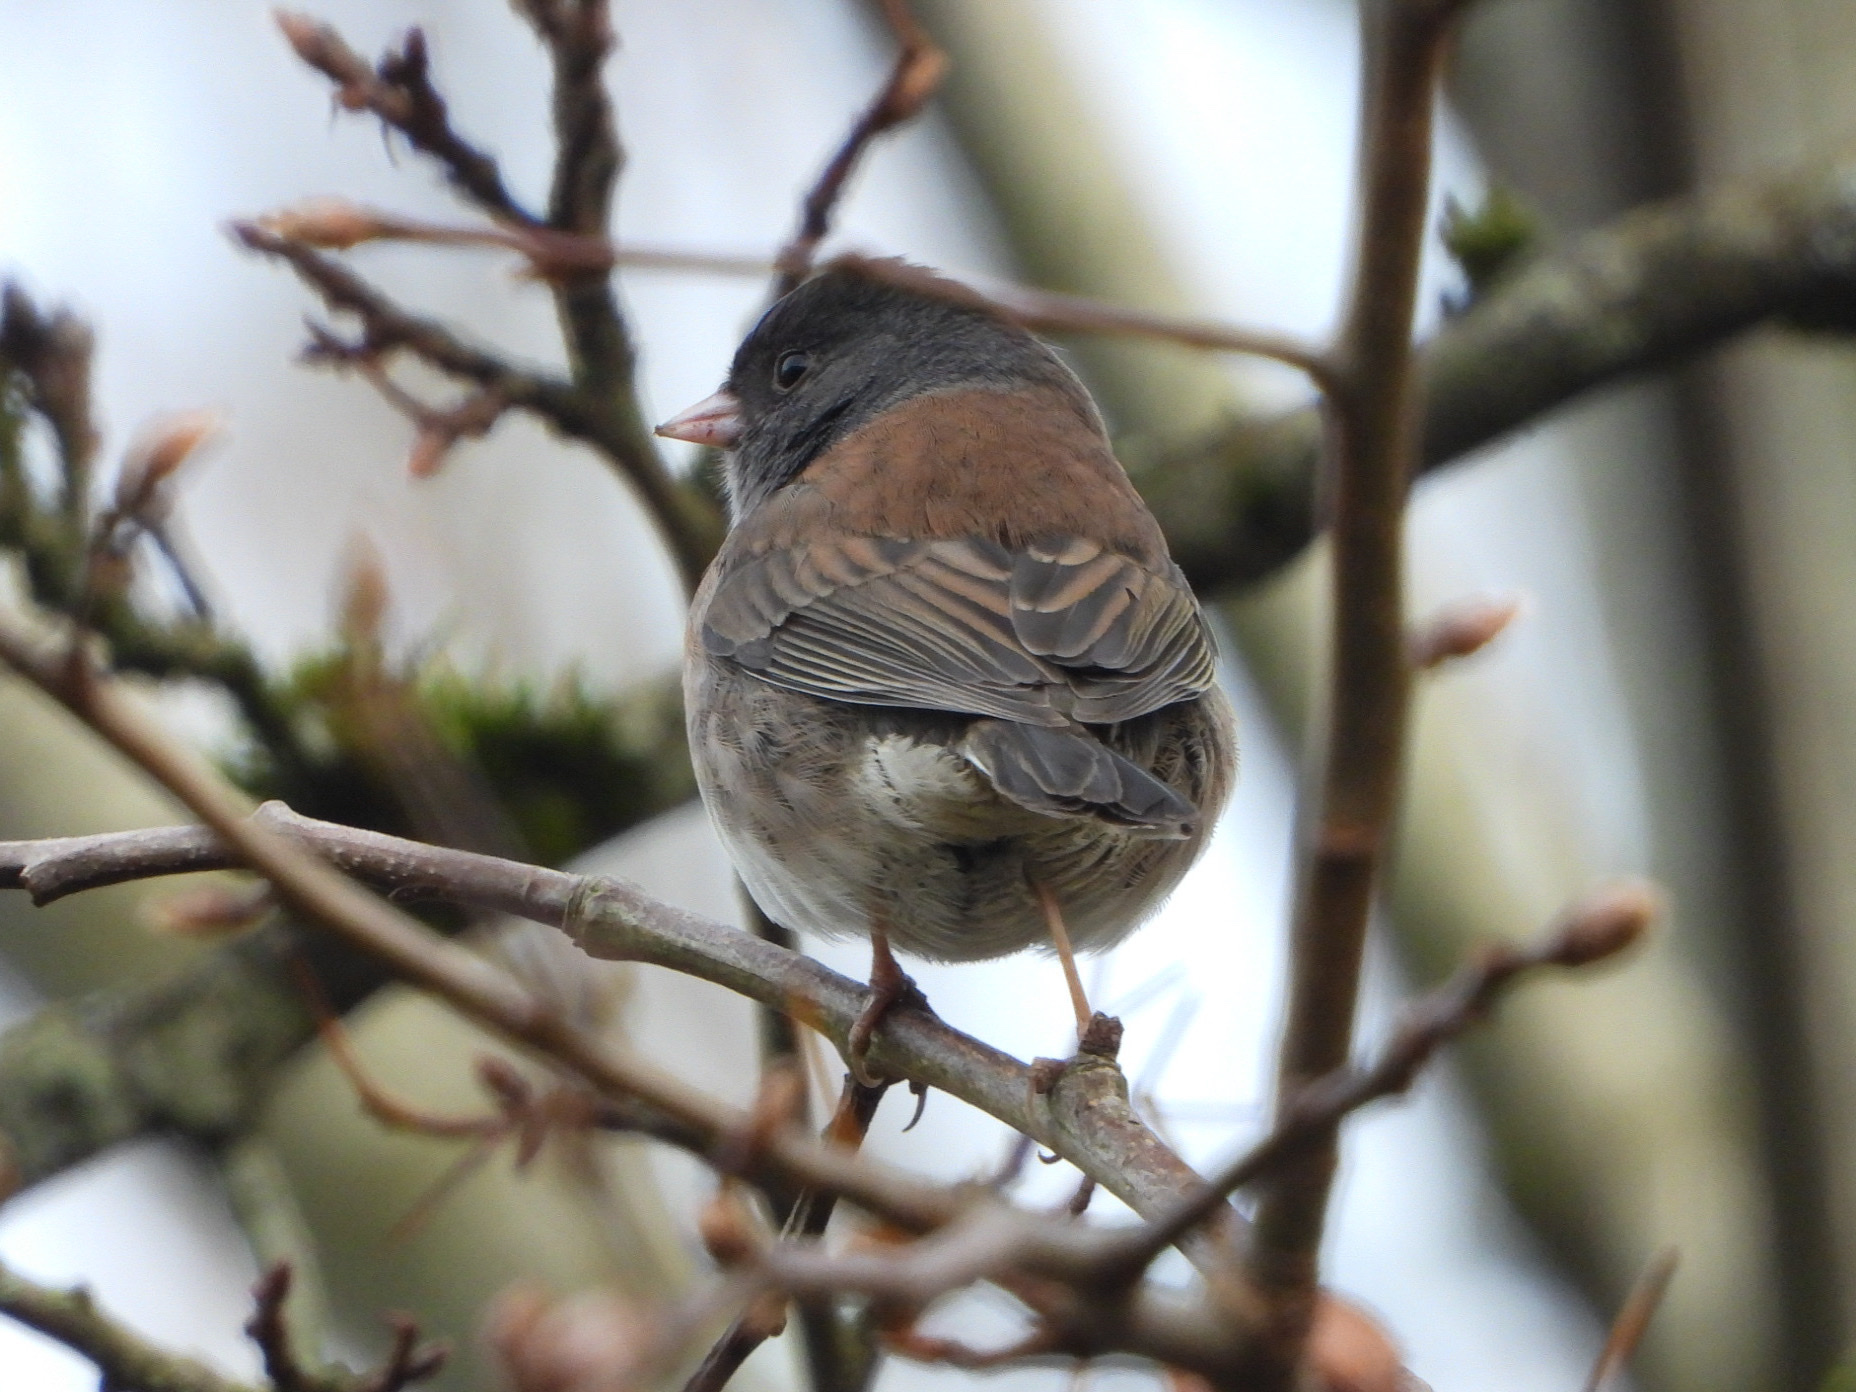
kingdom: Animalia
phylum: Chordata
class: Aves
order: Passeriformes
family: Passerellidae
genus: Junco
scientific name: Junco hyemalis
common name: Dark-eyed junco
